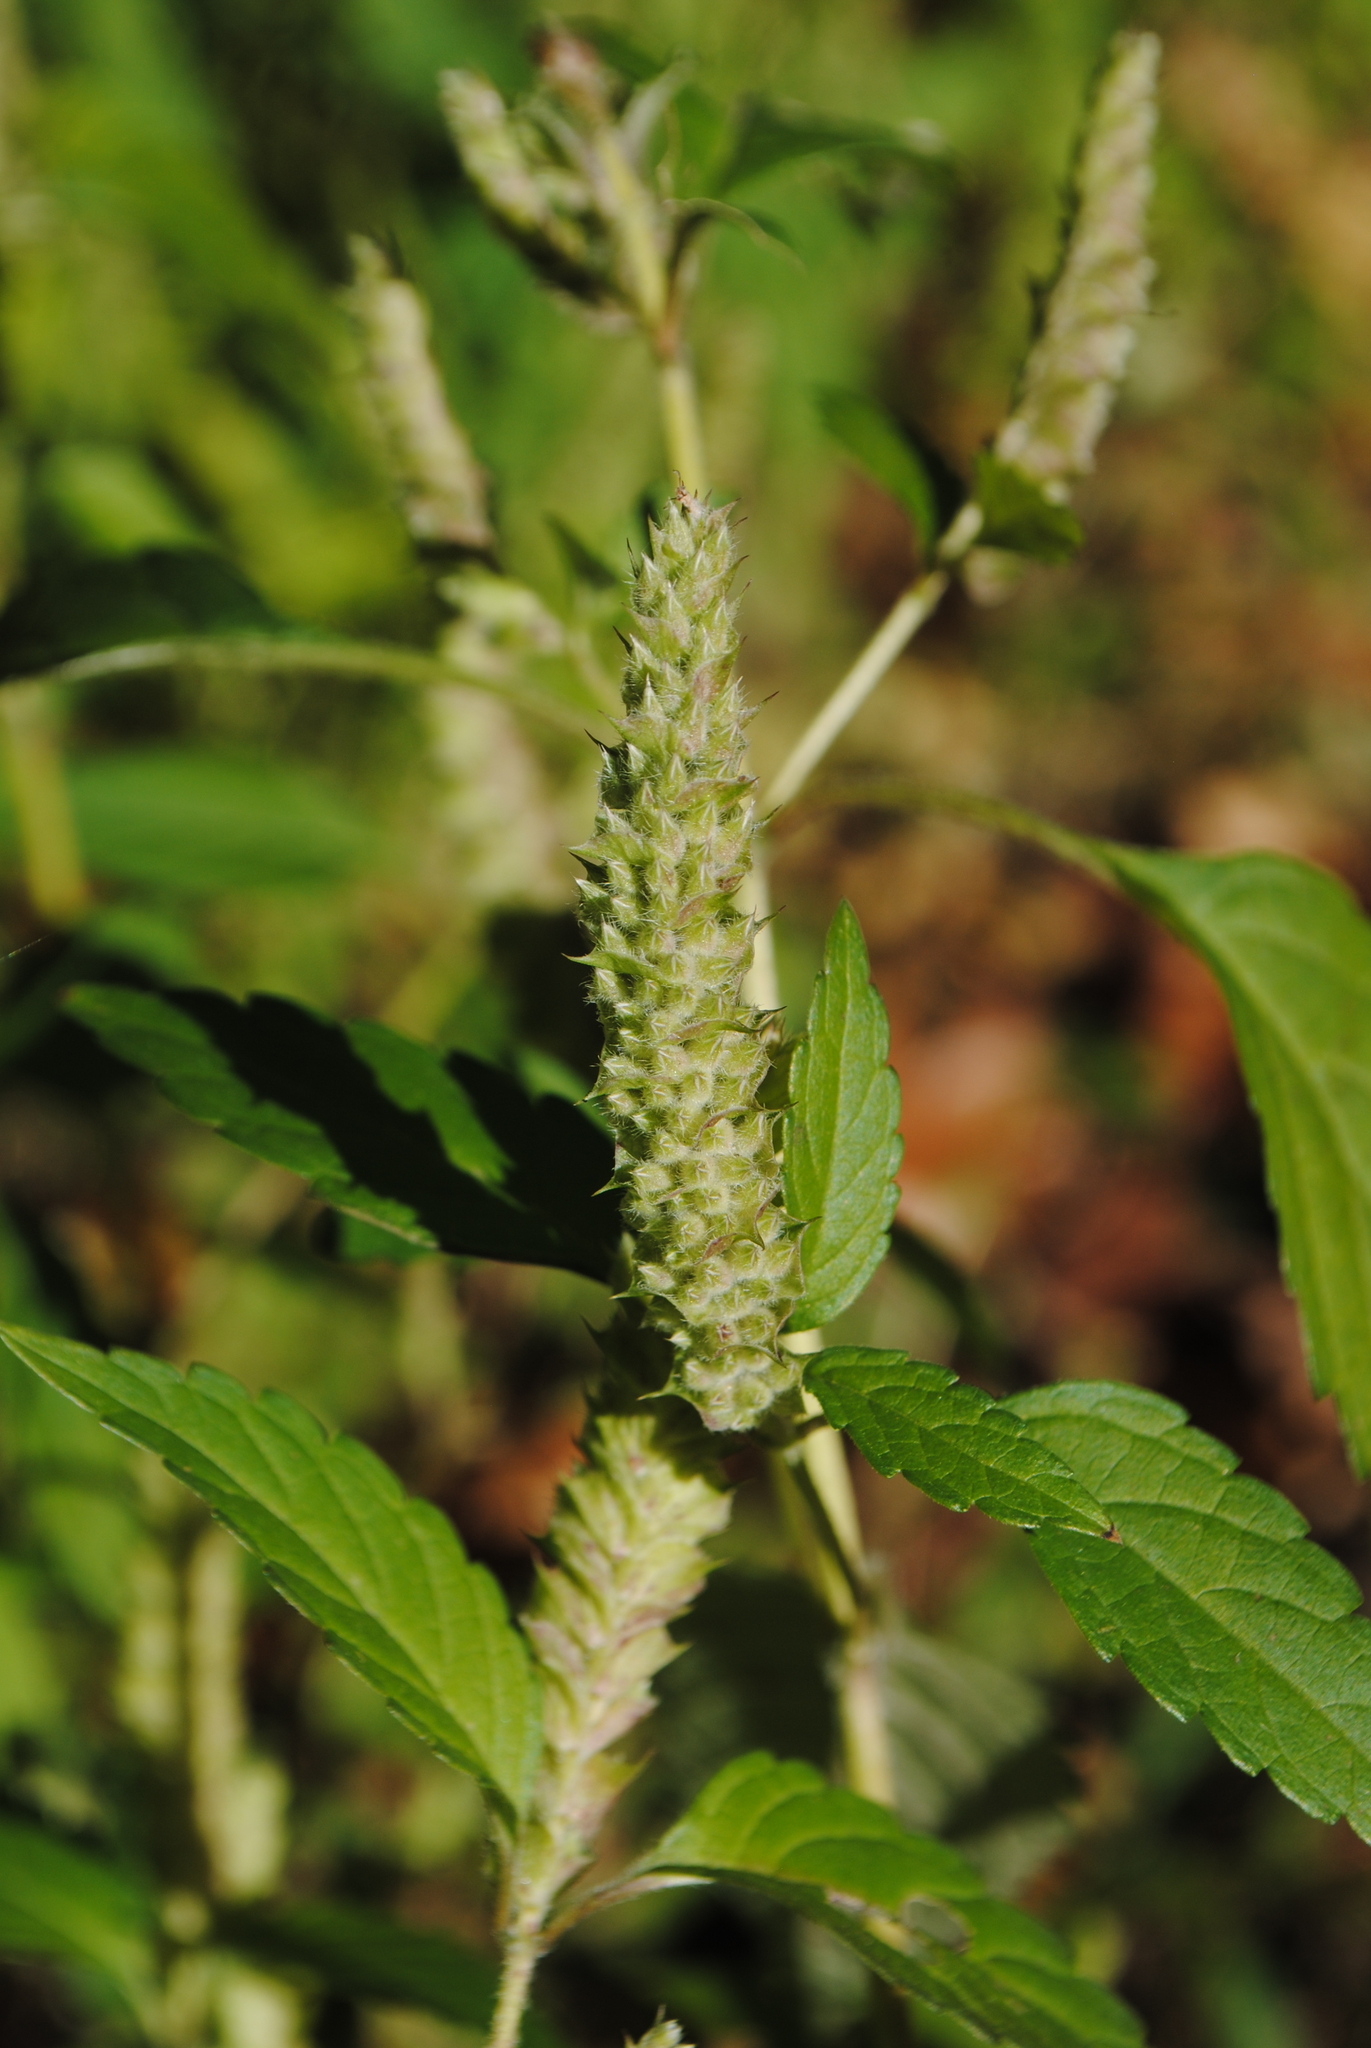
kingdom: Plantae
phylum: Tracheophyta
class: Magnoliopsida
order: Lamiales
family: Lamiaceae
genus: Elsholtzia
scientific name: Elsholtzia ciliata
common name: Ciliate elsholtzia
